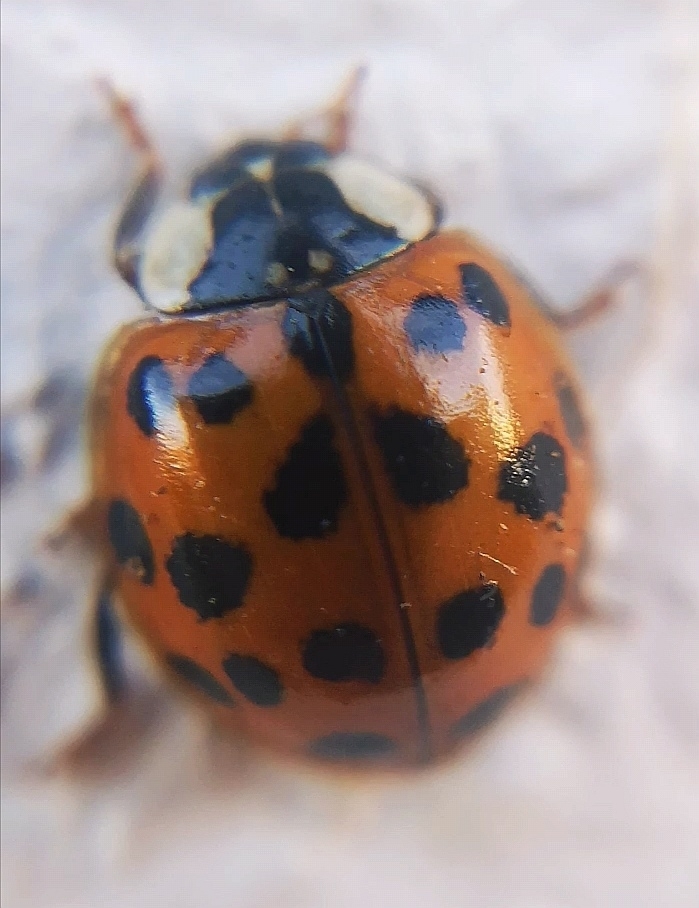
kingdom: Animalia
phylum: Arthropoda
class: Insecta
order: Coleoptera
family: Coccinellidae
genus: Harmonia
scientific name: Harmonia axyridis
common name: Harlequin ladybird
